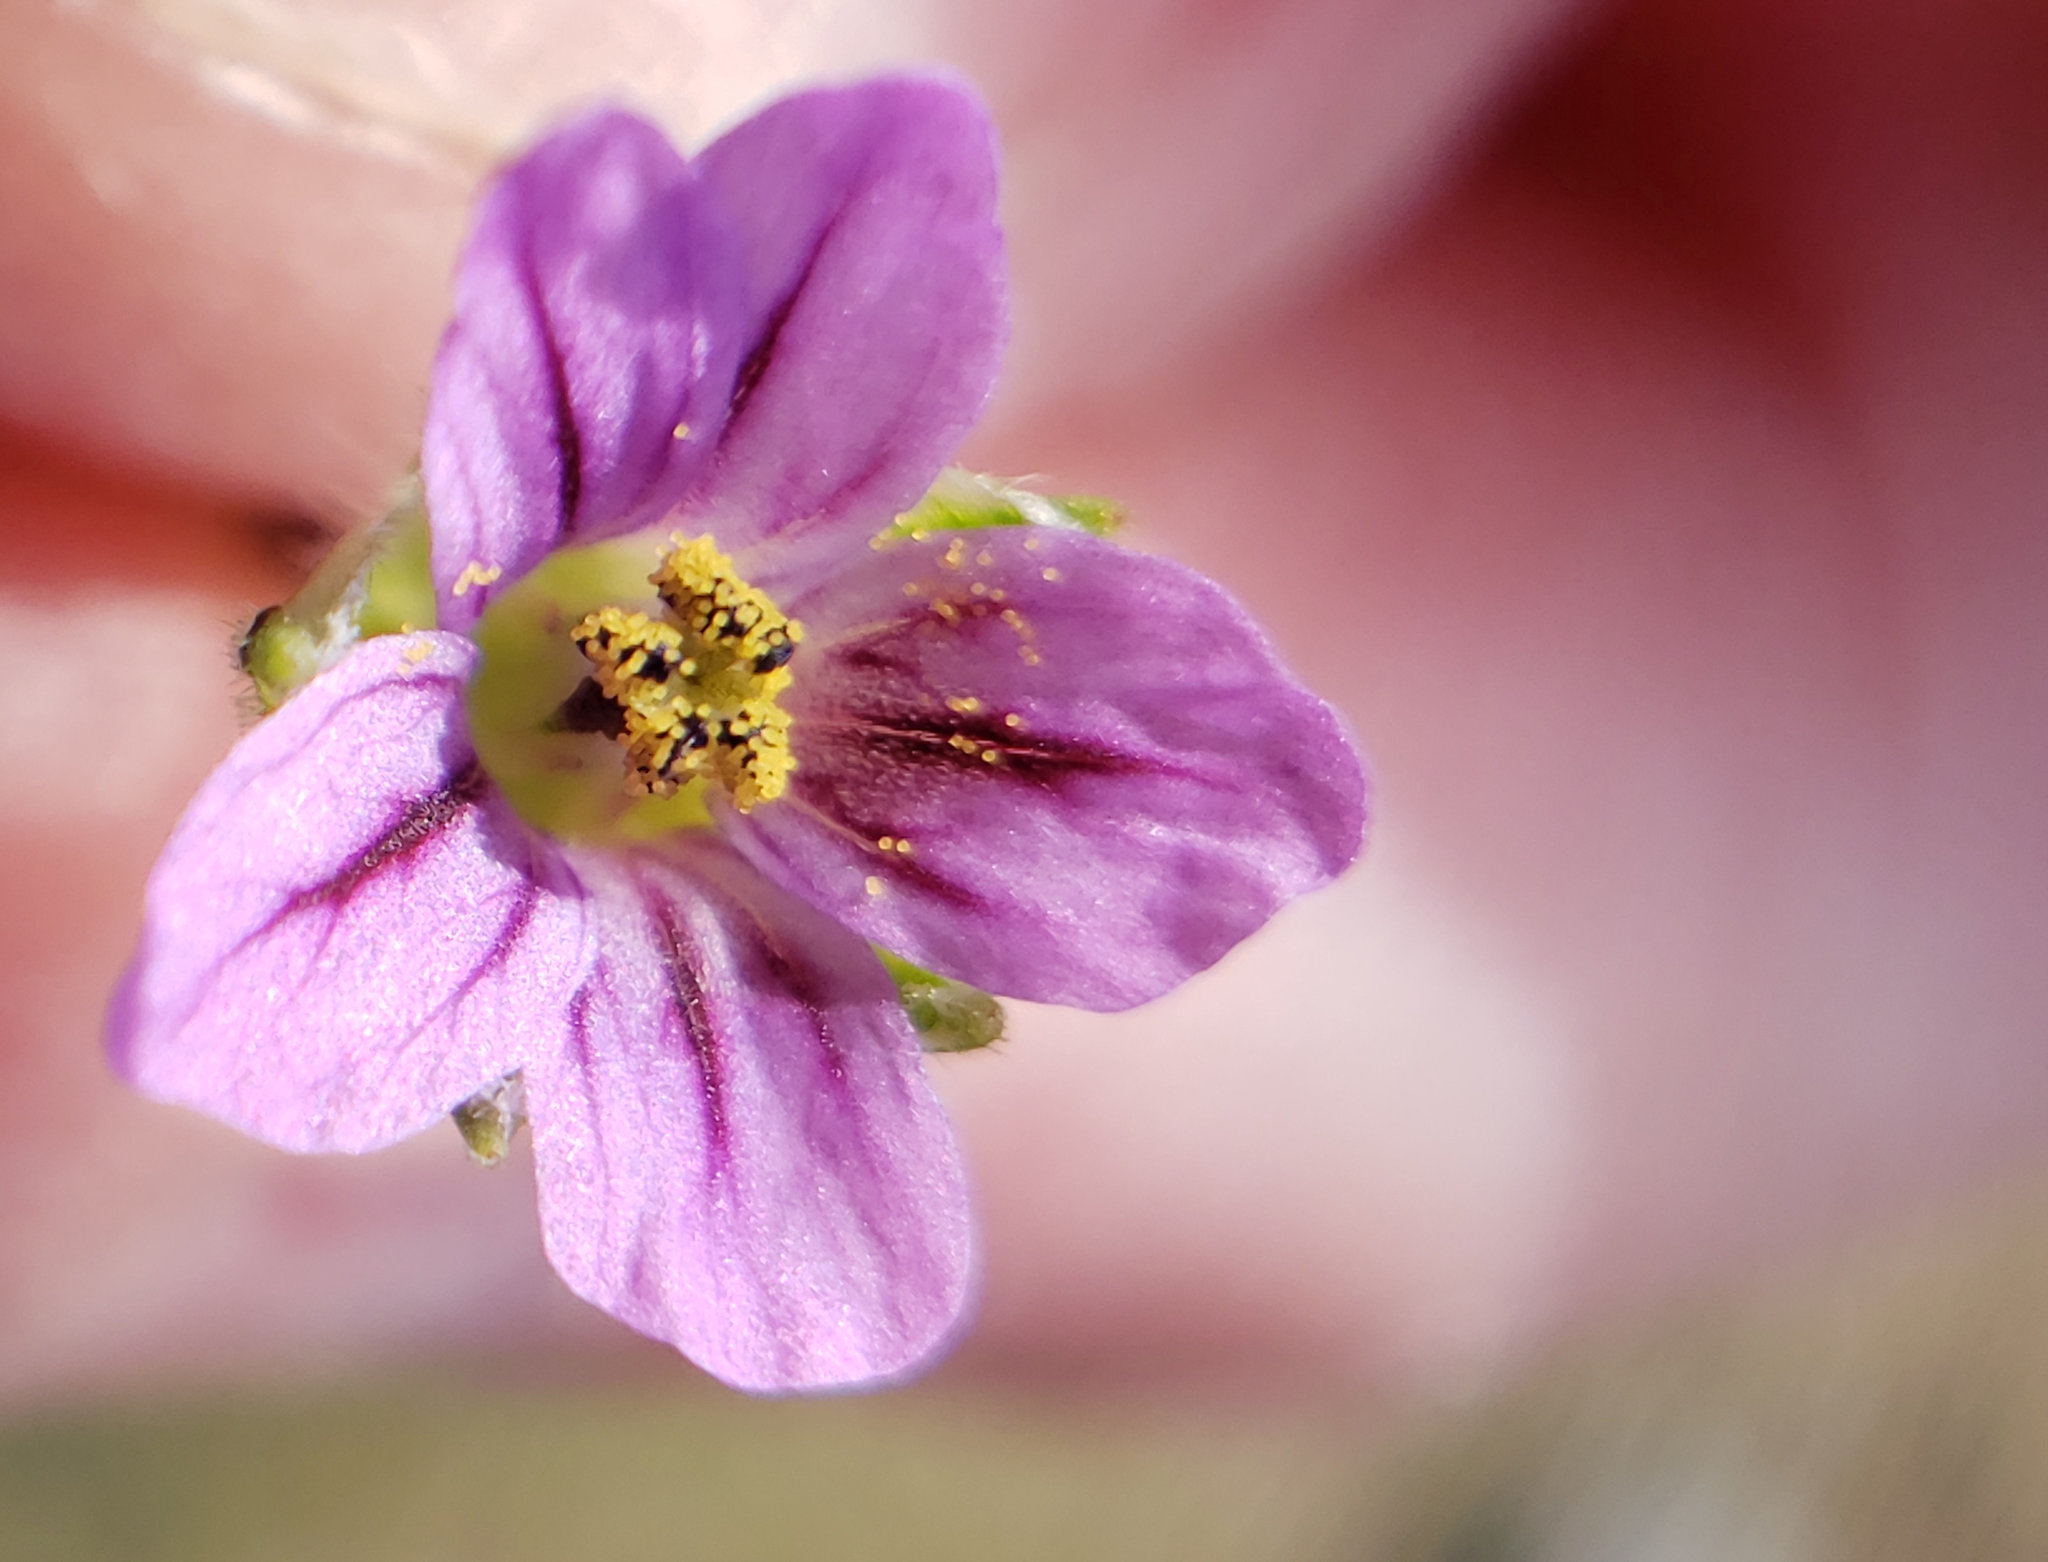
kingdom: Plantae
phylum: Tracheophyta
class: Magnoliopsida
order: Geraniales
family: Geraniaceae
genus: Erodium
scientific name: Erodium botrys
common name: Mediterranean stork's-bill
